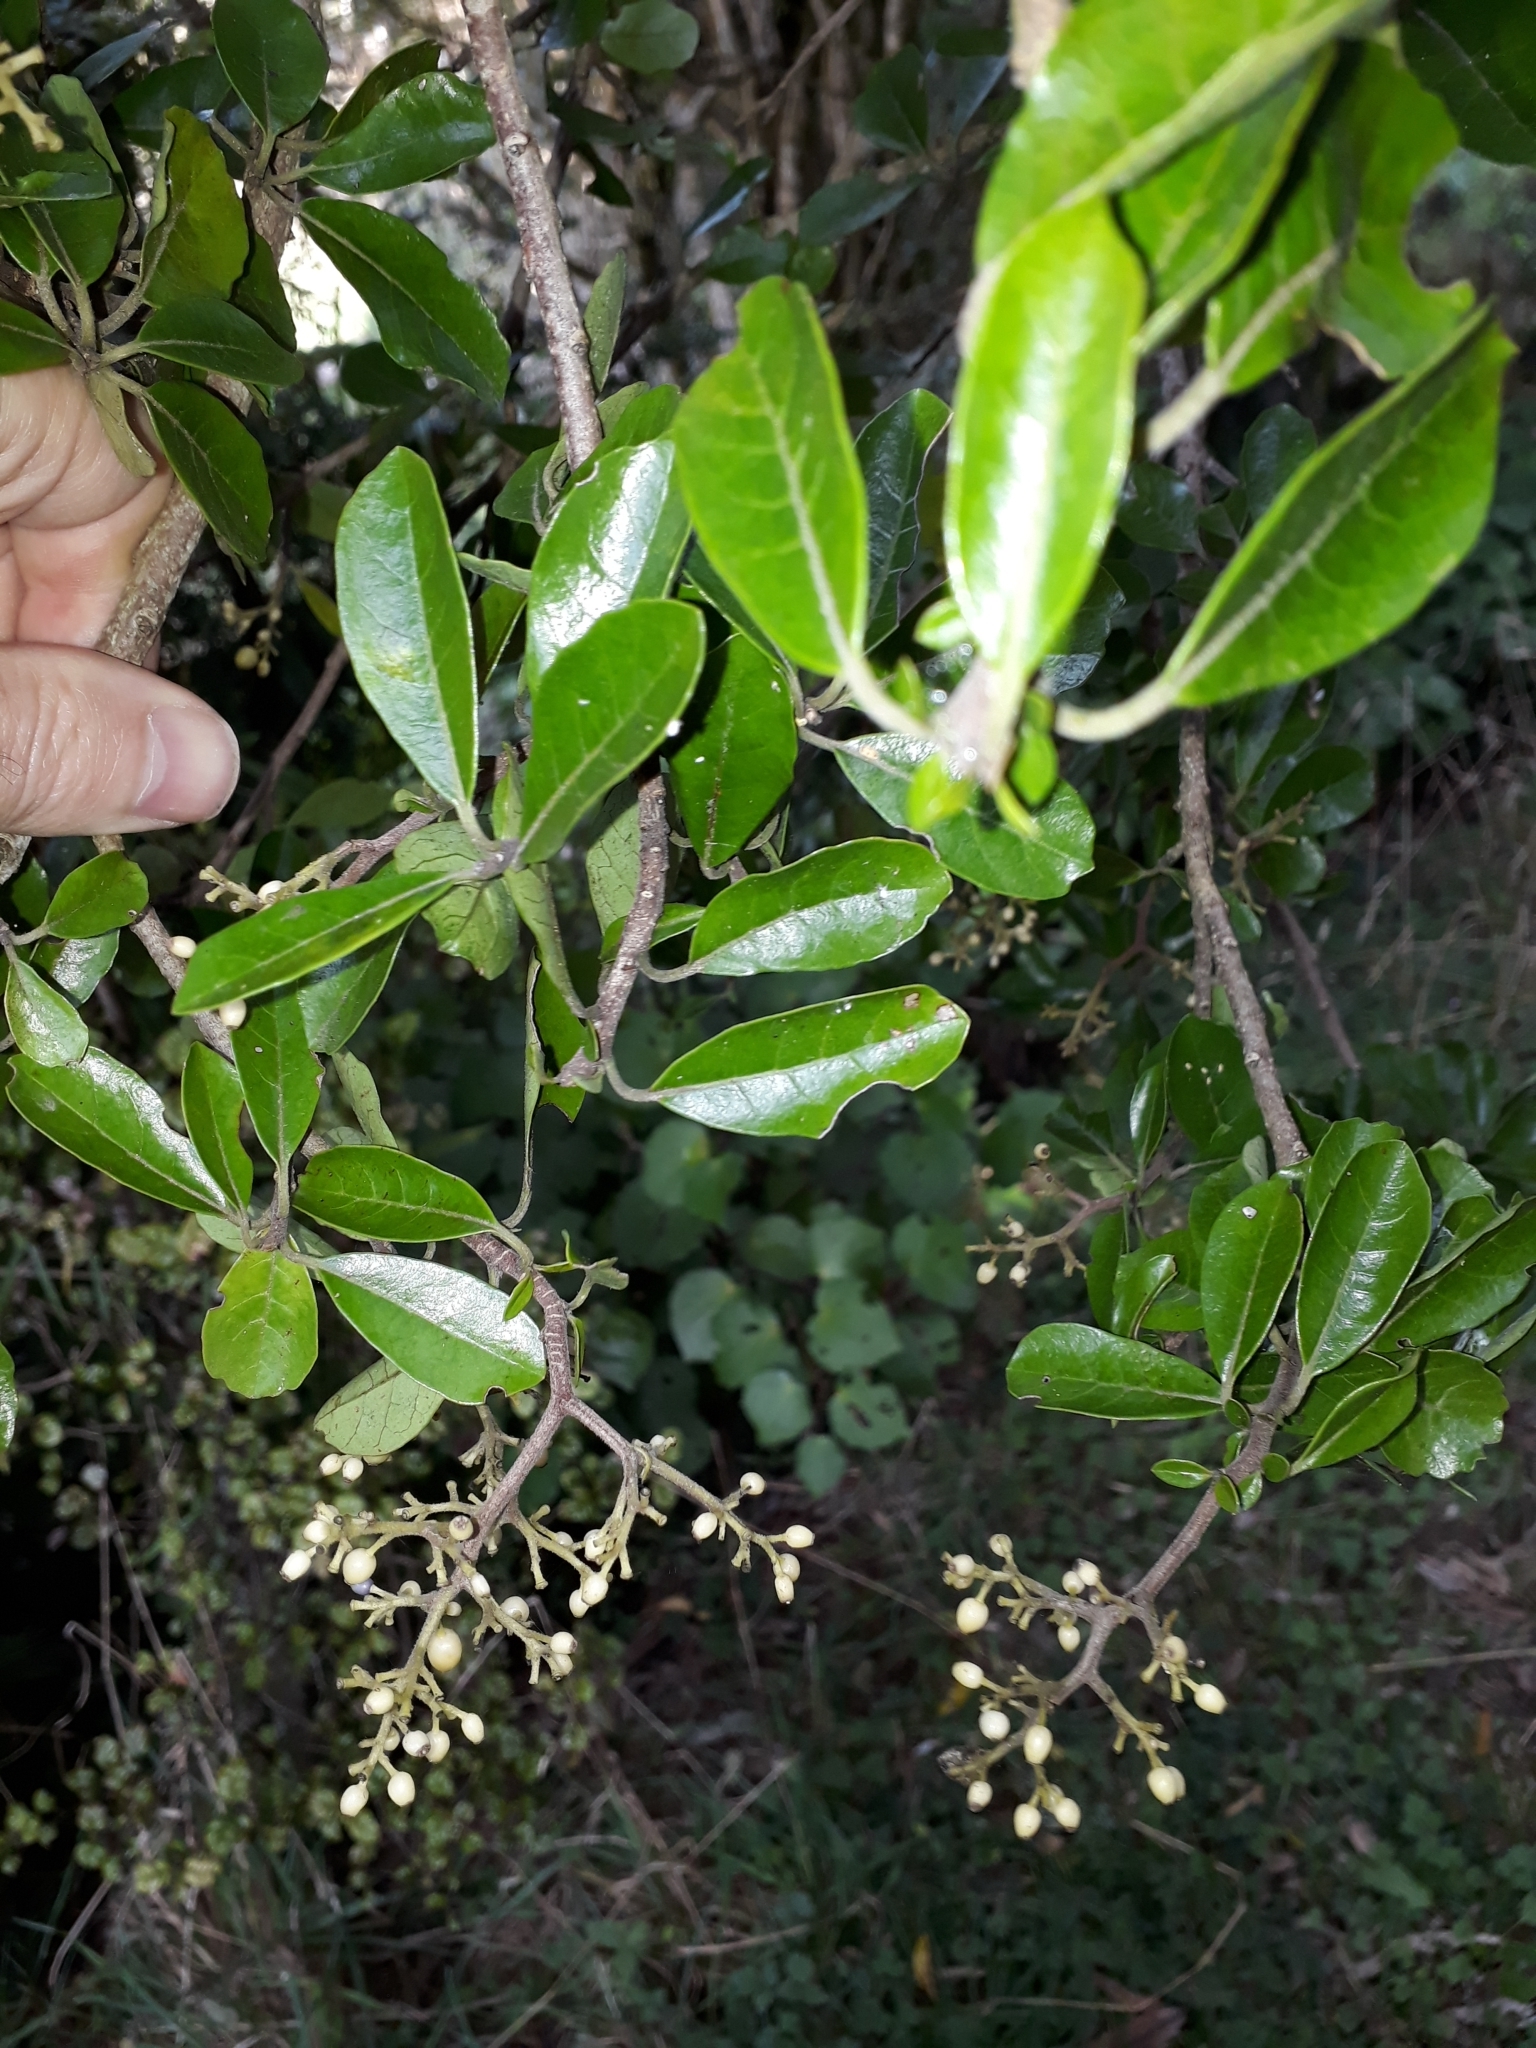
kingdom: Plantae
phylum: Tracheophyta
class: Magnoliopsida
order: Apiales
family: Pennantiaceae
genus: Pennantia
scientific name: Pennantia corymbosa
